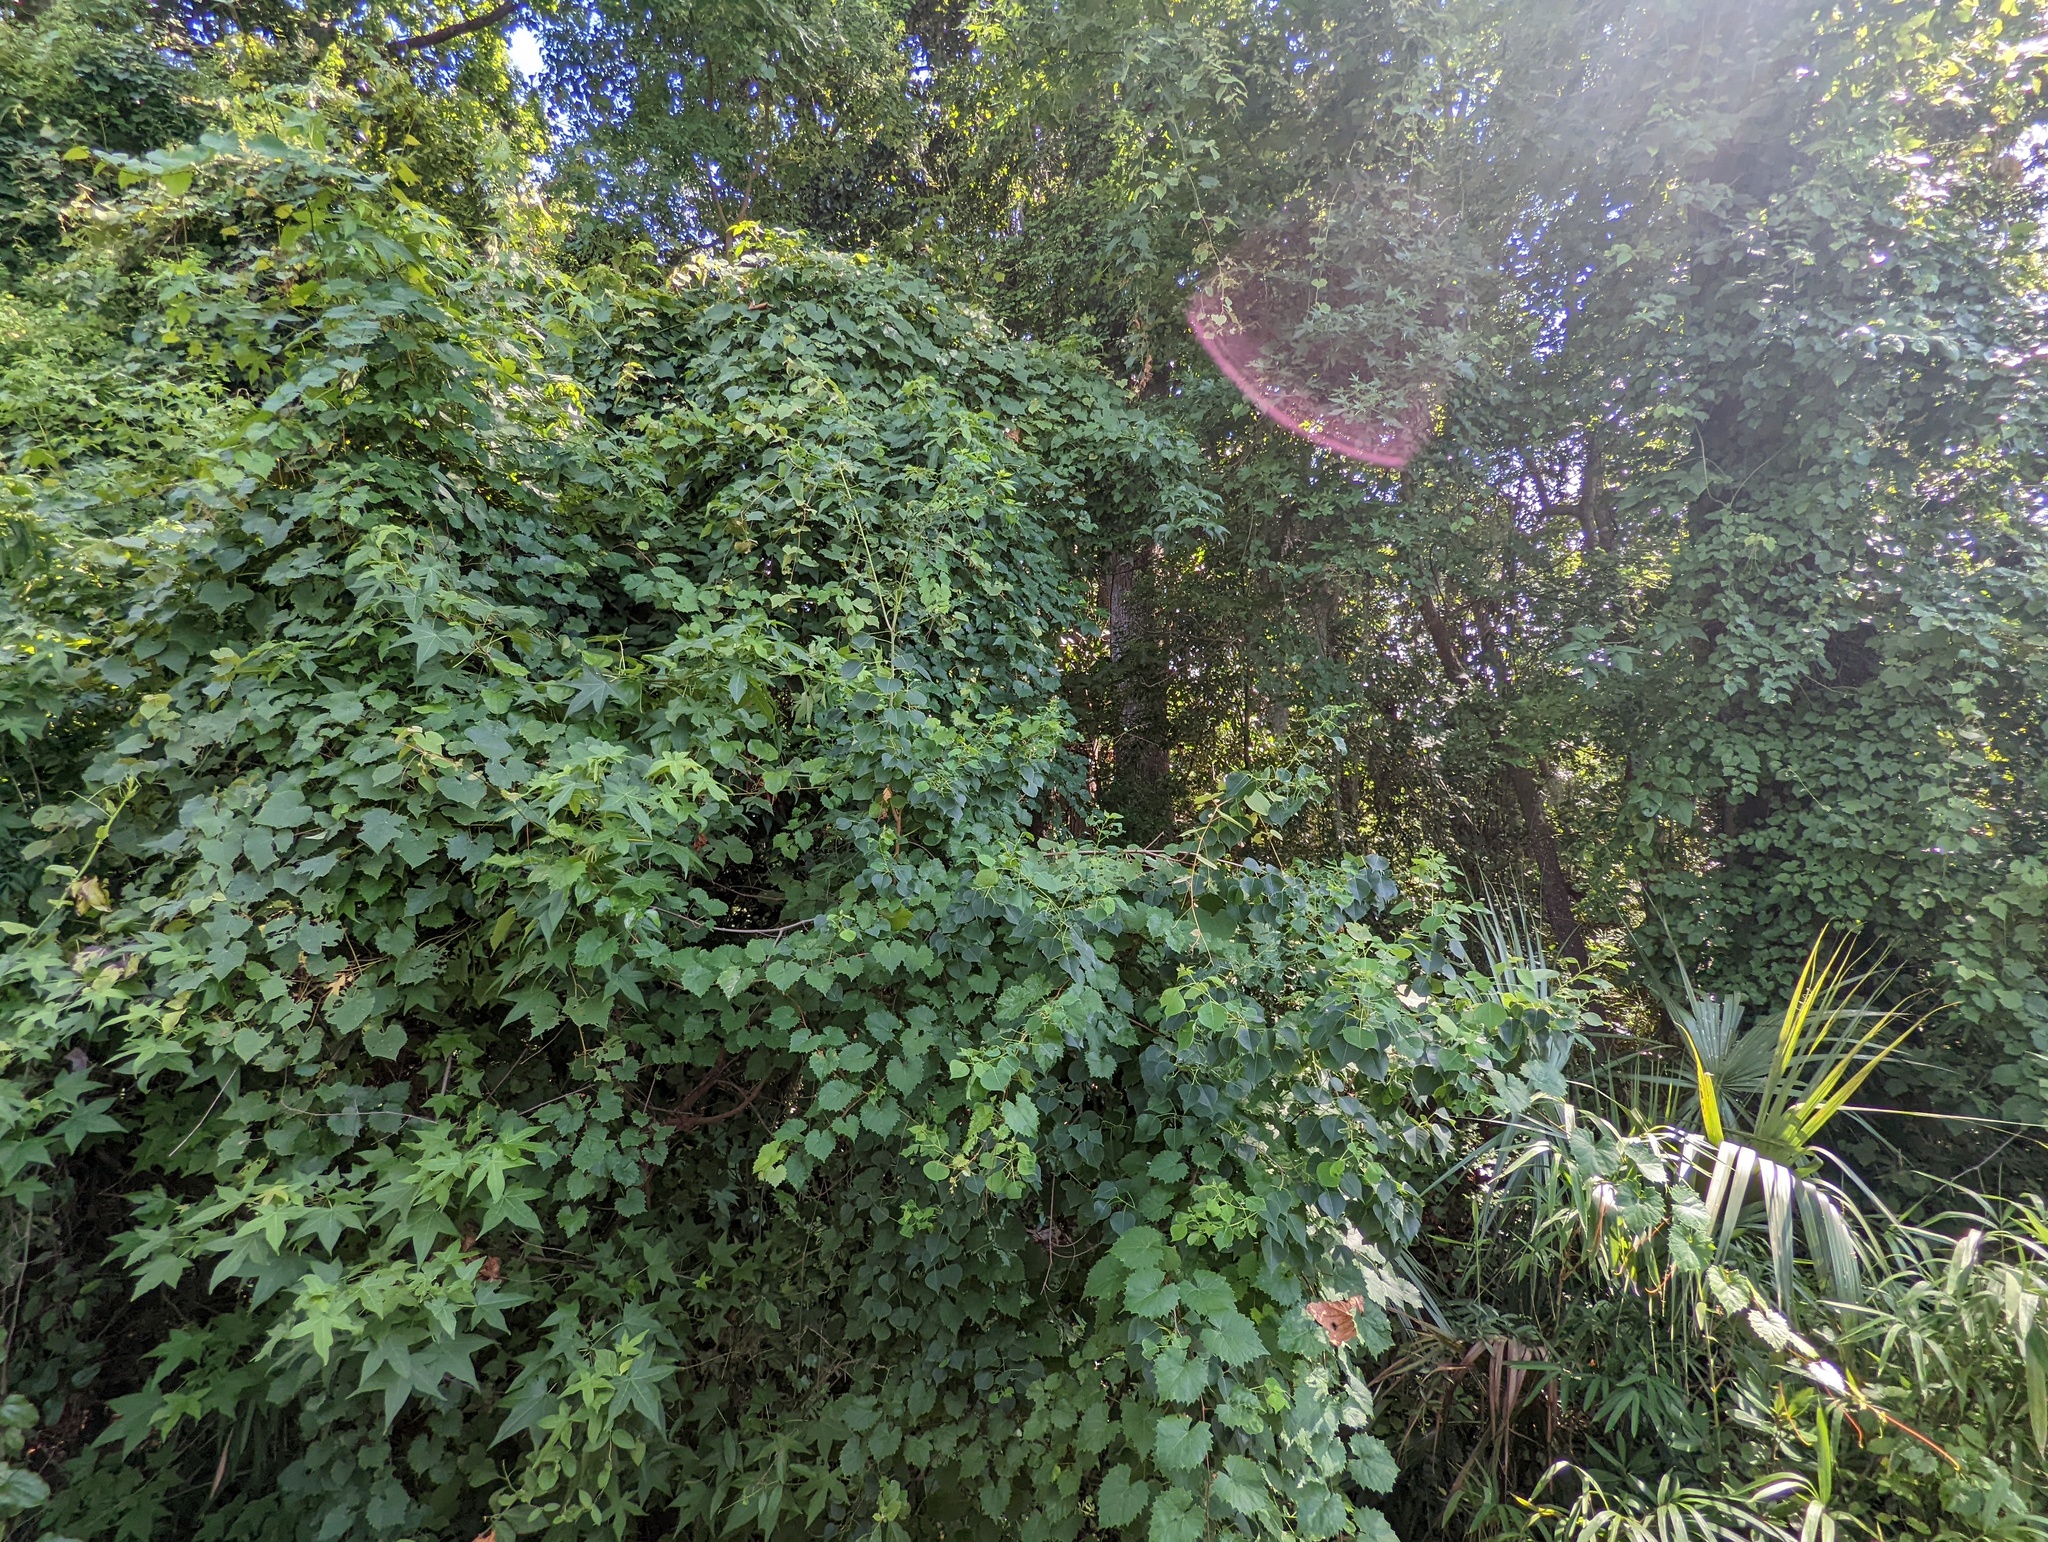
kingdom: Plantae
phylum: Tracheophyta
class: Magnoliopsida
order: Vitales
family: Vitaceae
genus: Vitis
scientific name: Vitis rotundifolia
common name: Muscadine grape
